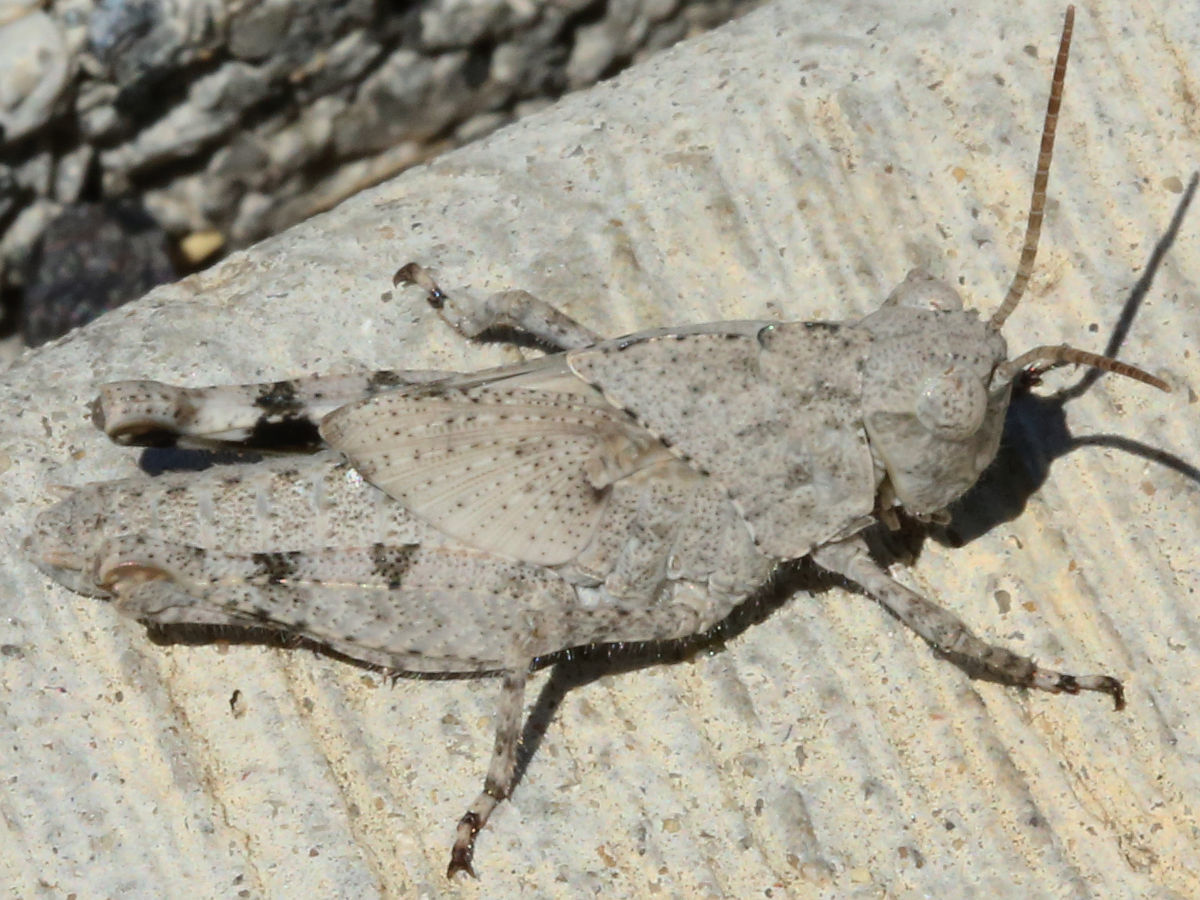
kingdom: Animalia
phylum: Arthropoda
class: Insecta
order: Orthoptera
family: Acrididae
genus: Dissosteira
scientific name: Dissosteira carolina
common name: Carolina grasshopper
